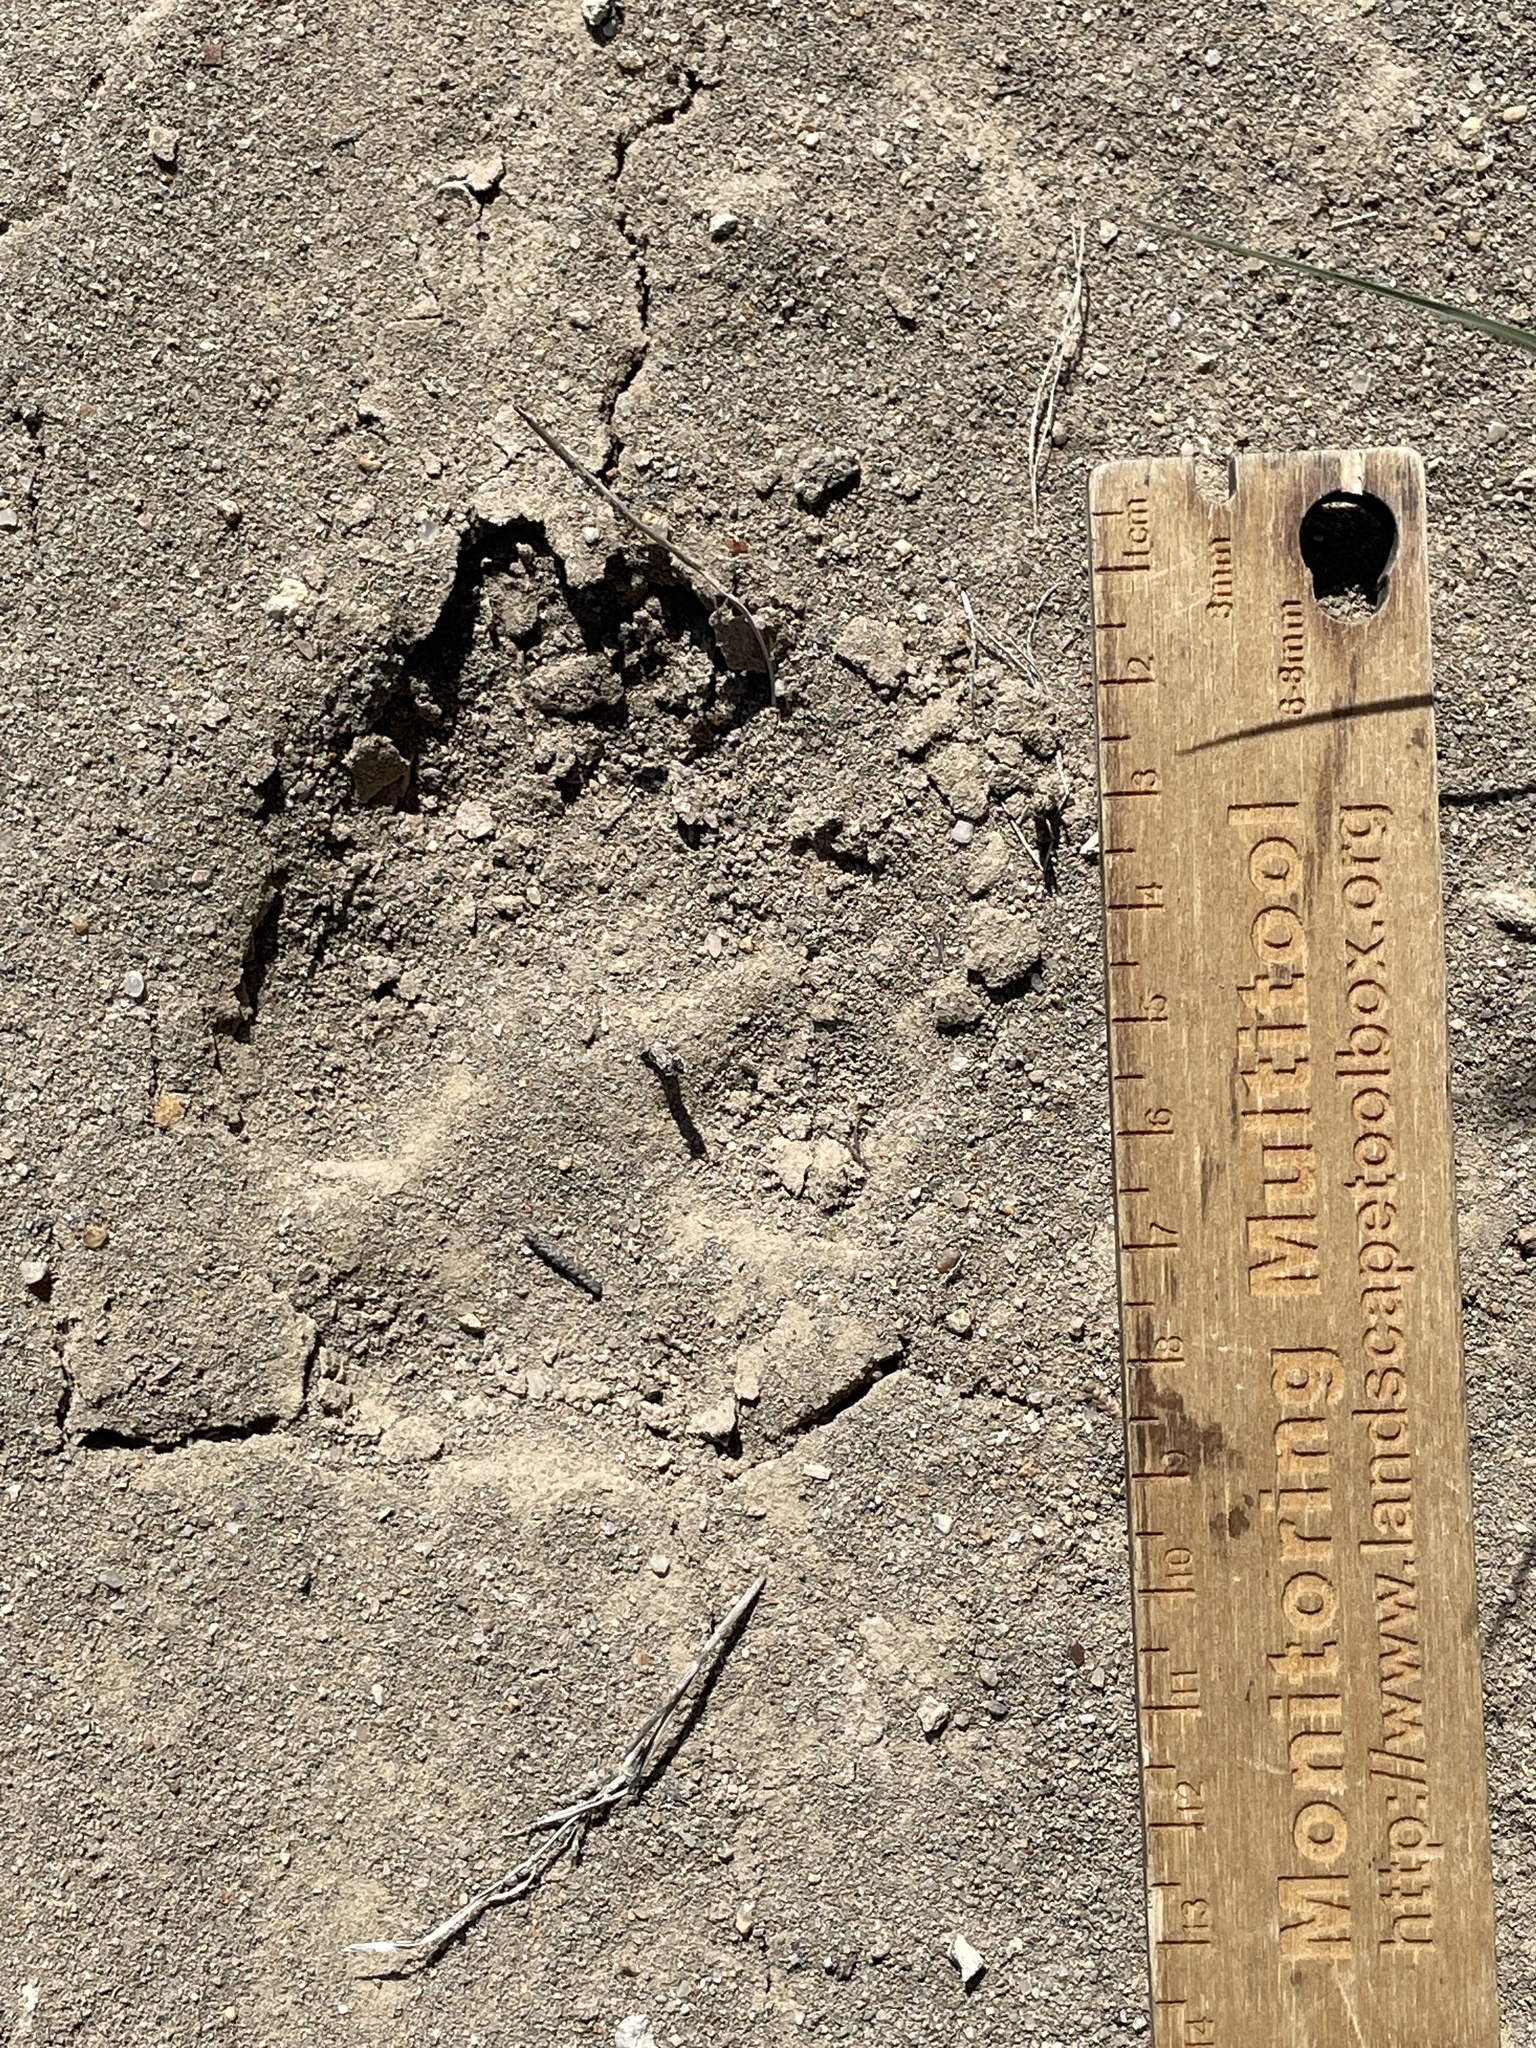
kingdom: Animalia
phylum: Chordata
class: Mammalia
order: Carnivora
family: Canidae
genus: Canis
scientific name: Canis latrans
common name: Coyote
